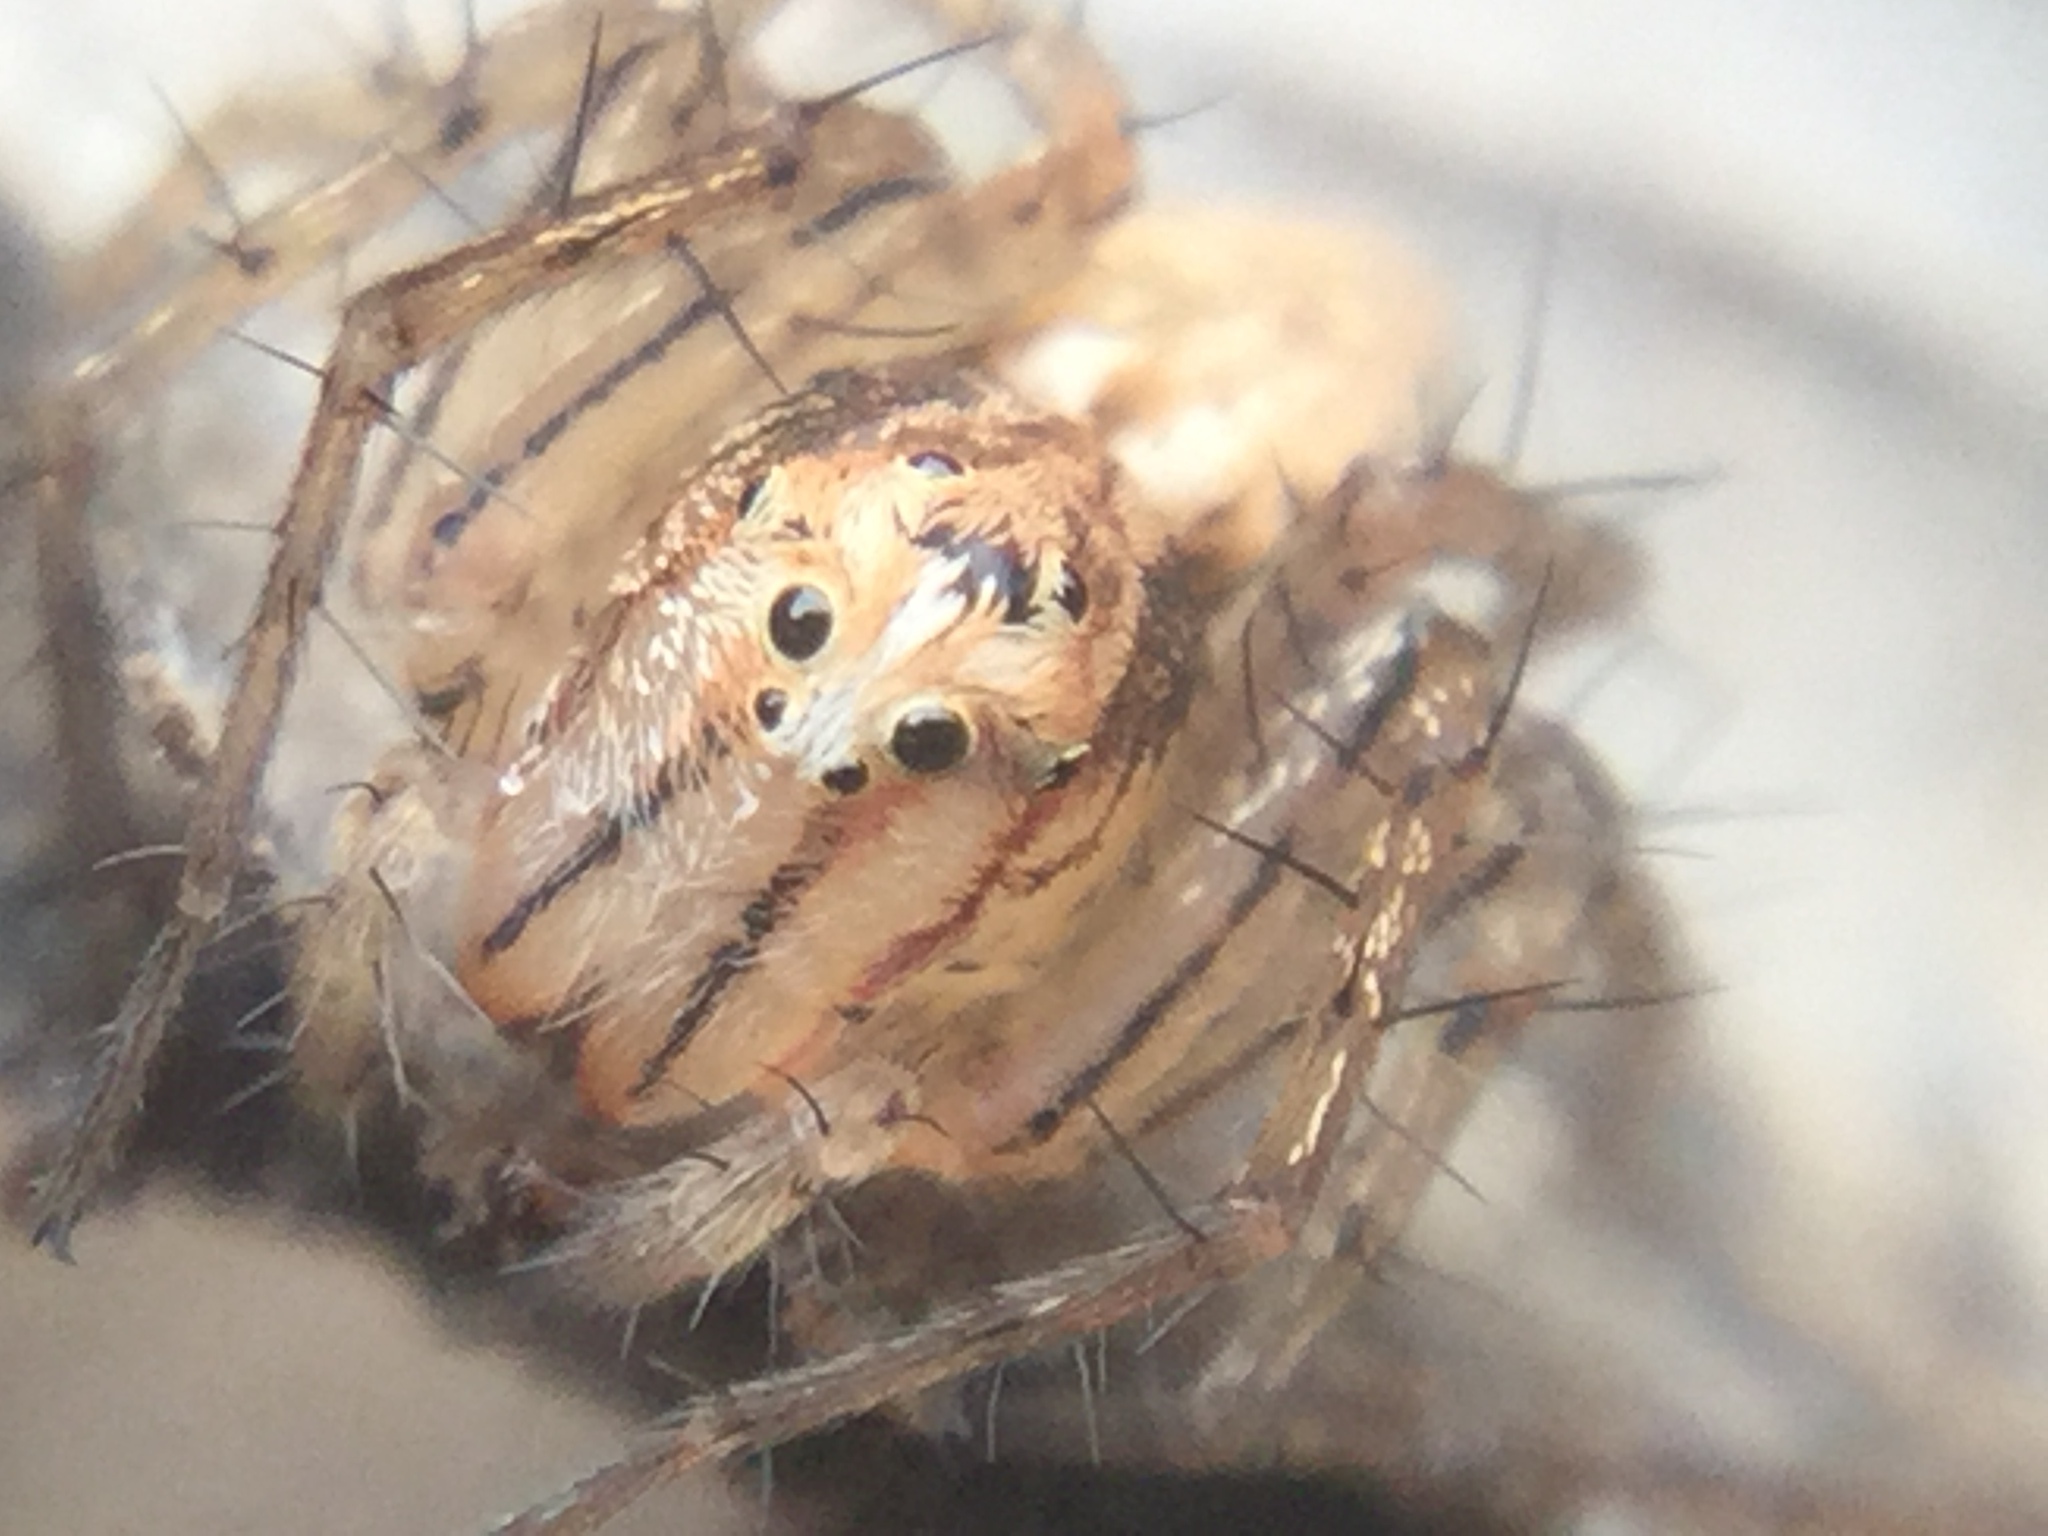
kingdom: Animalia
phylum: Arthropoda
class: Arachnida
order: Araneae
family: Oxyopidae
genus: Oxyopes
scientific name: Oxyopes aglossus
